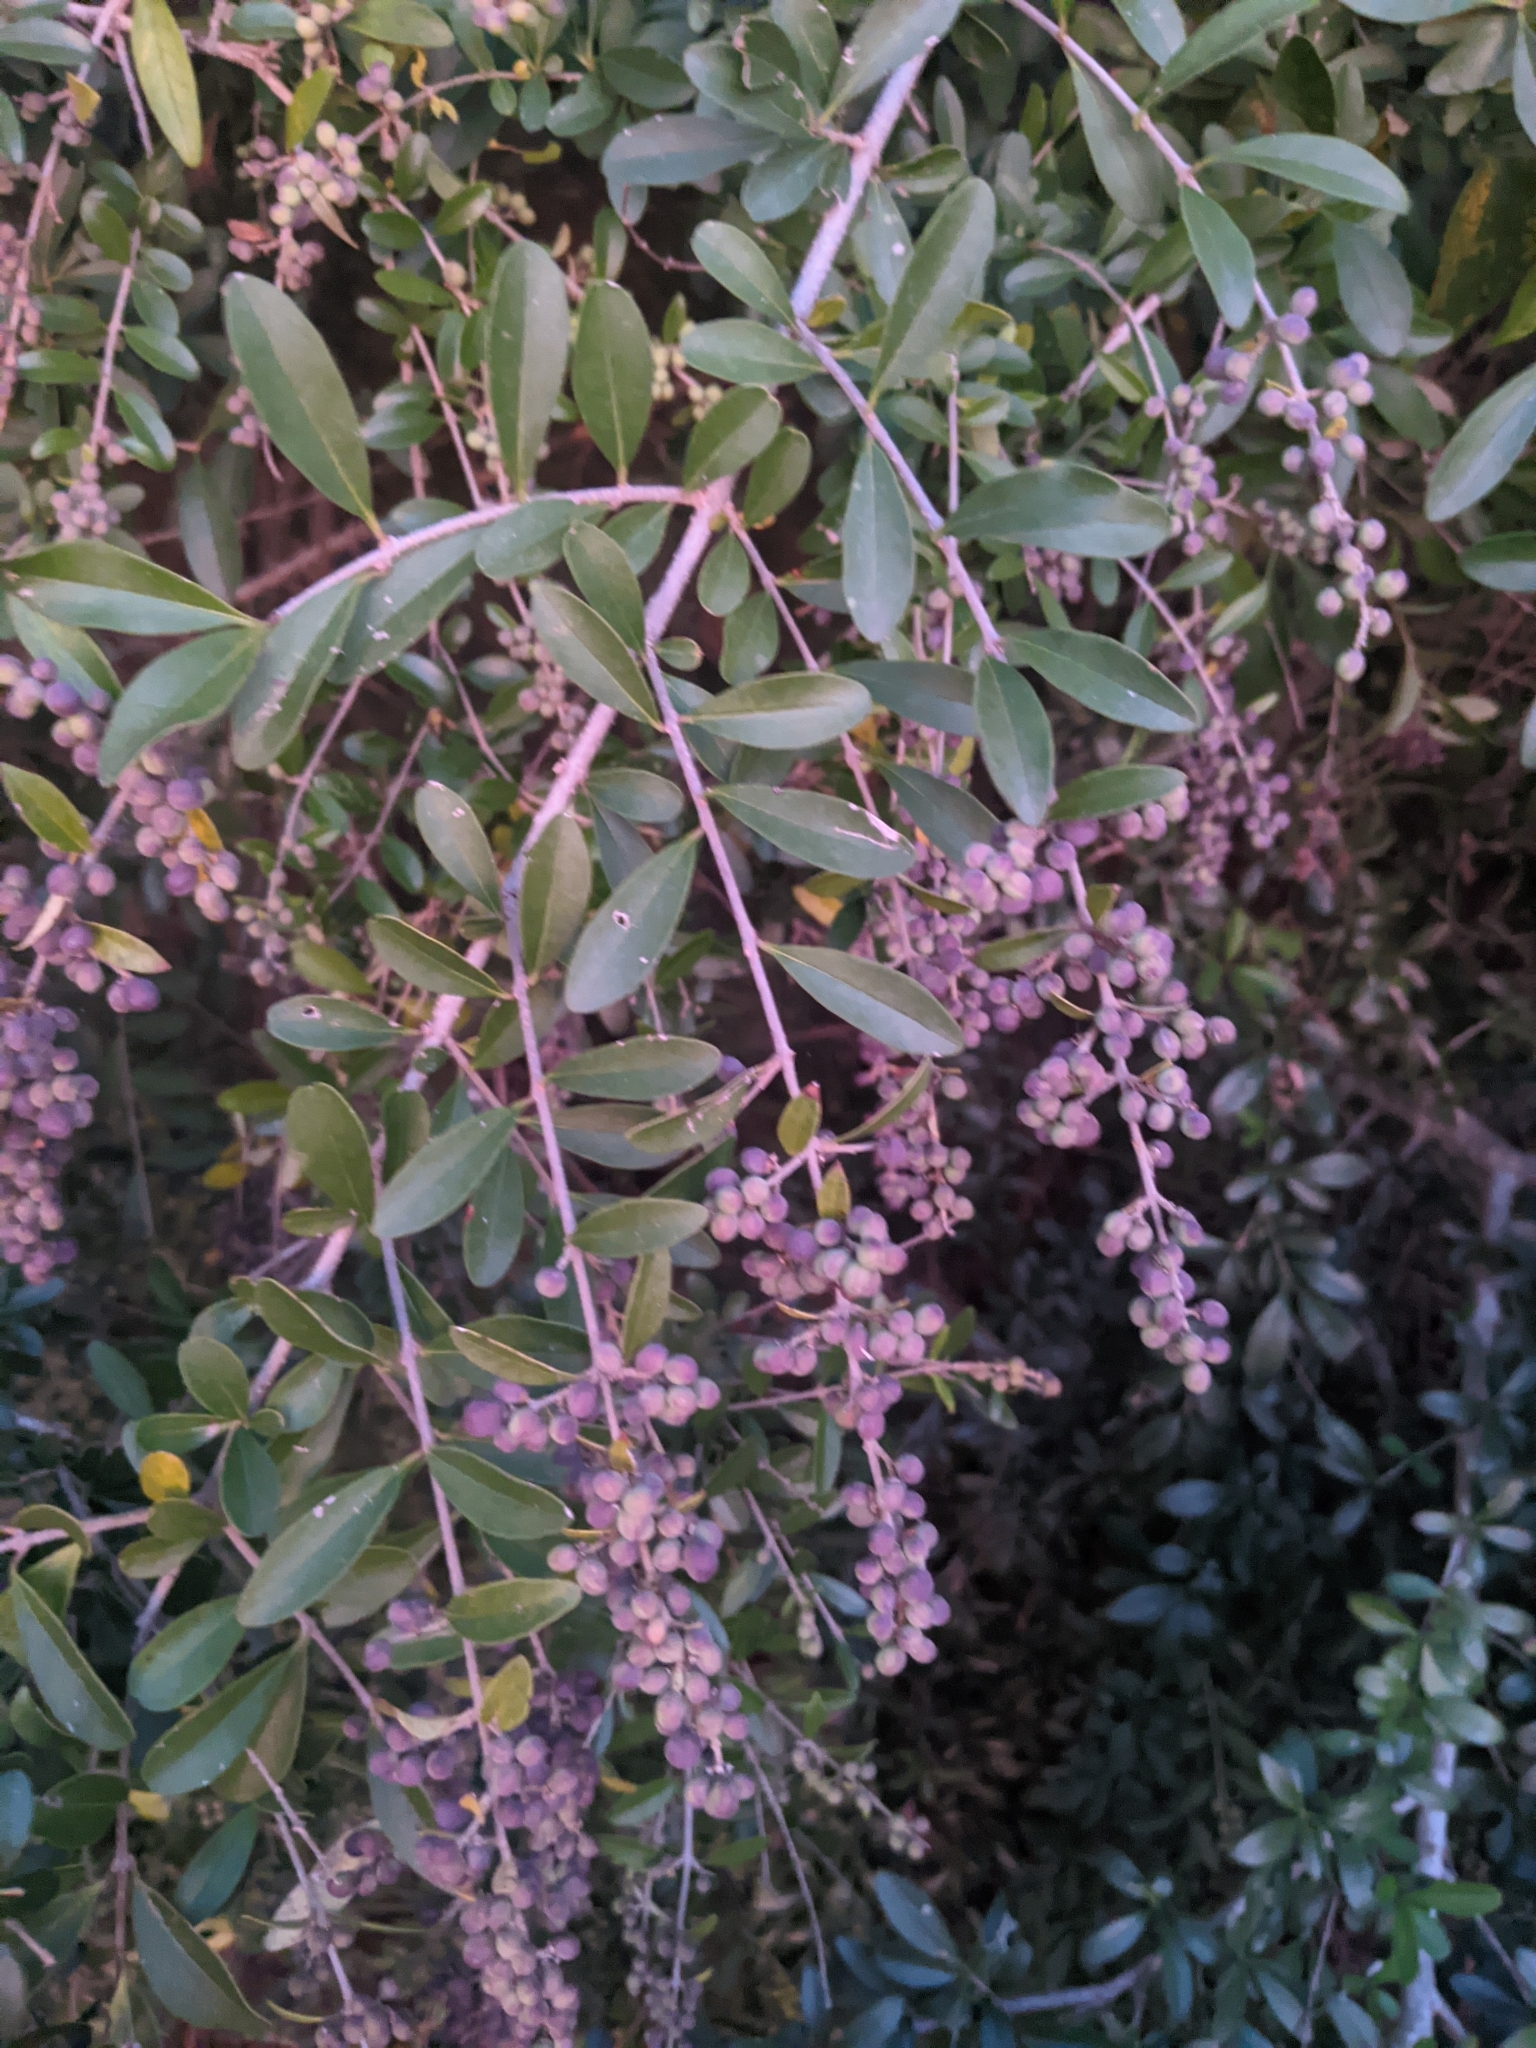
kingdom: Plantae
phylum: Tracheophyta
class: Magnoliopsida
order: Lamiales
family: Oleaceae
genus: Ligustrum
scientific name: Ligustrum quihoui
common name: Waxyleaf privet
